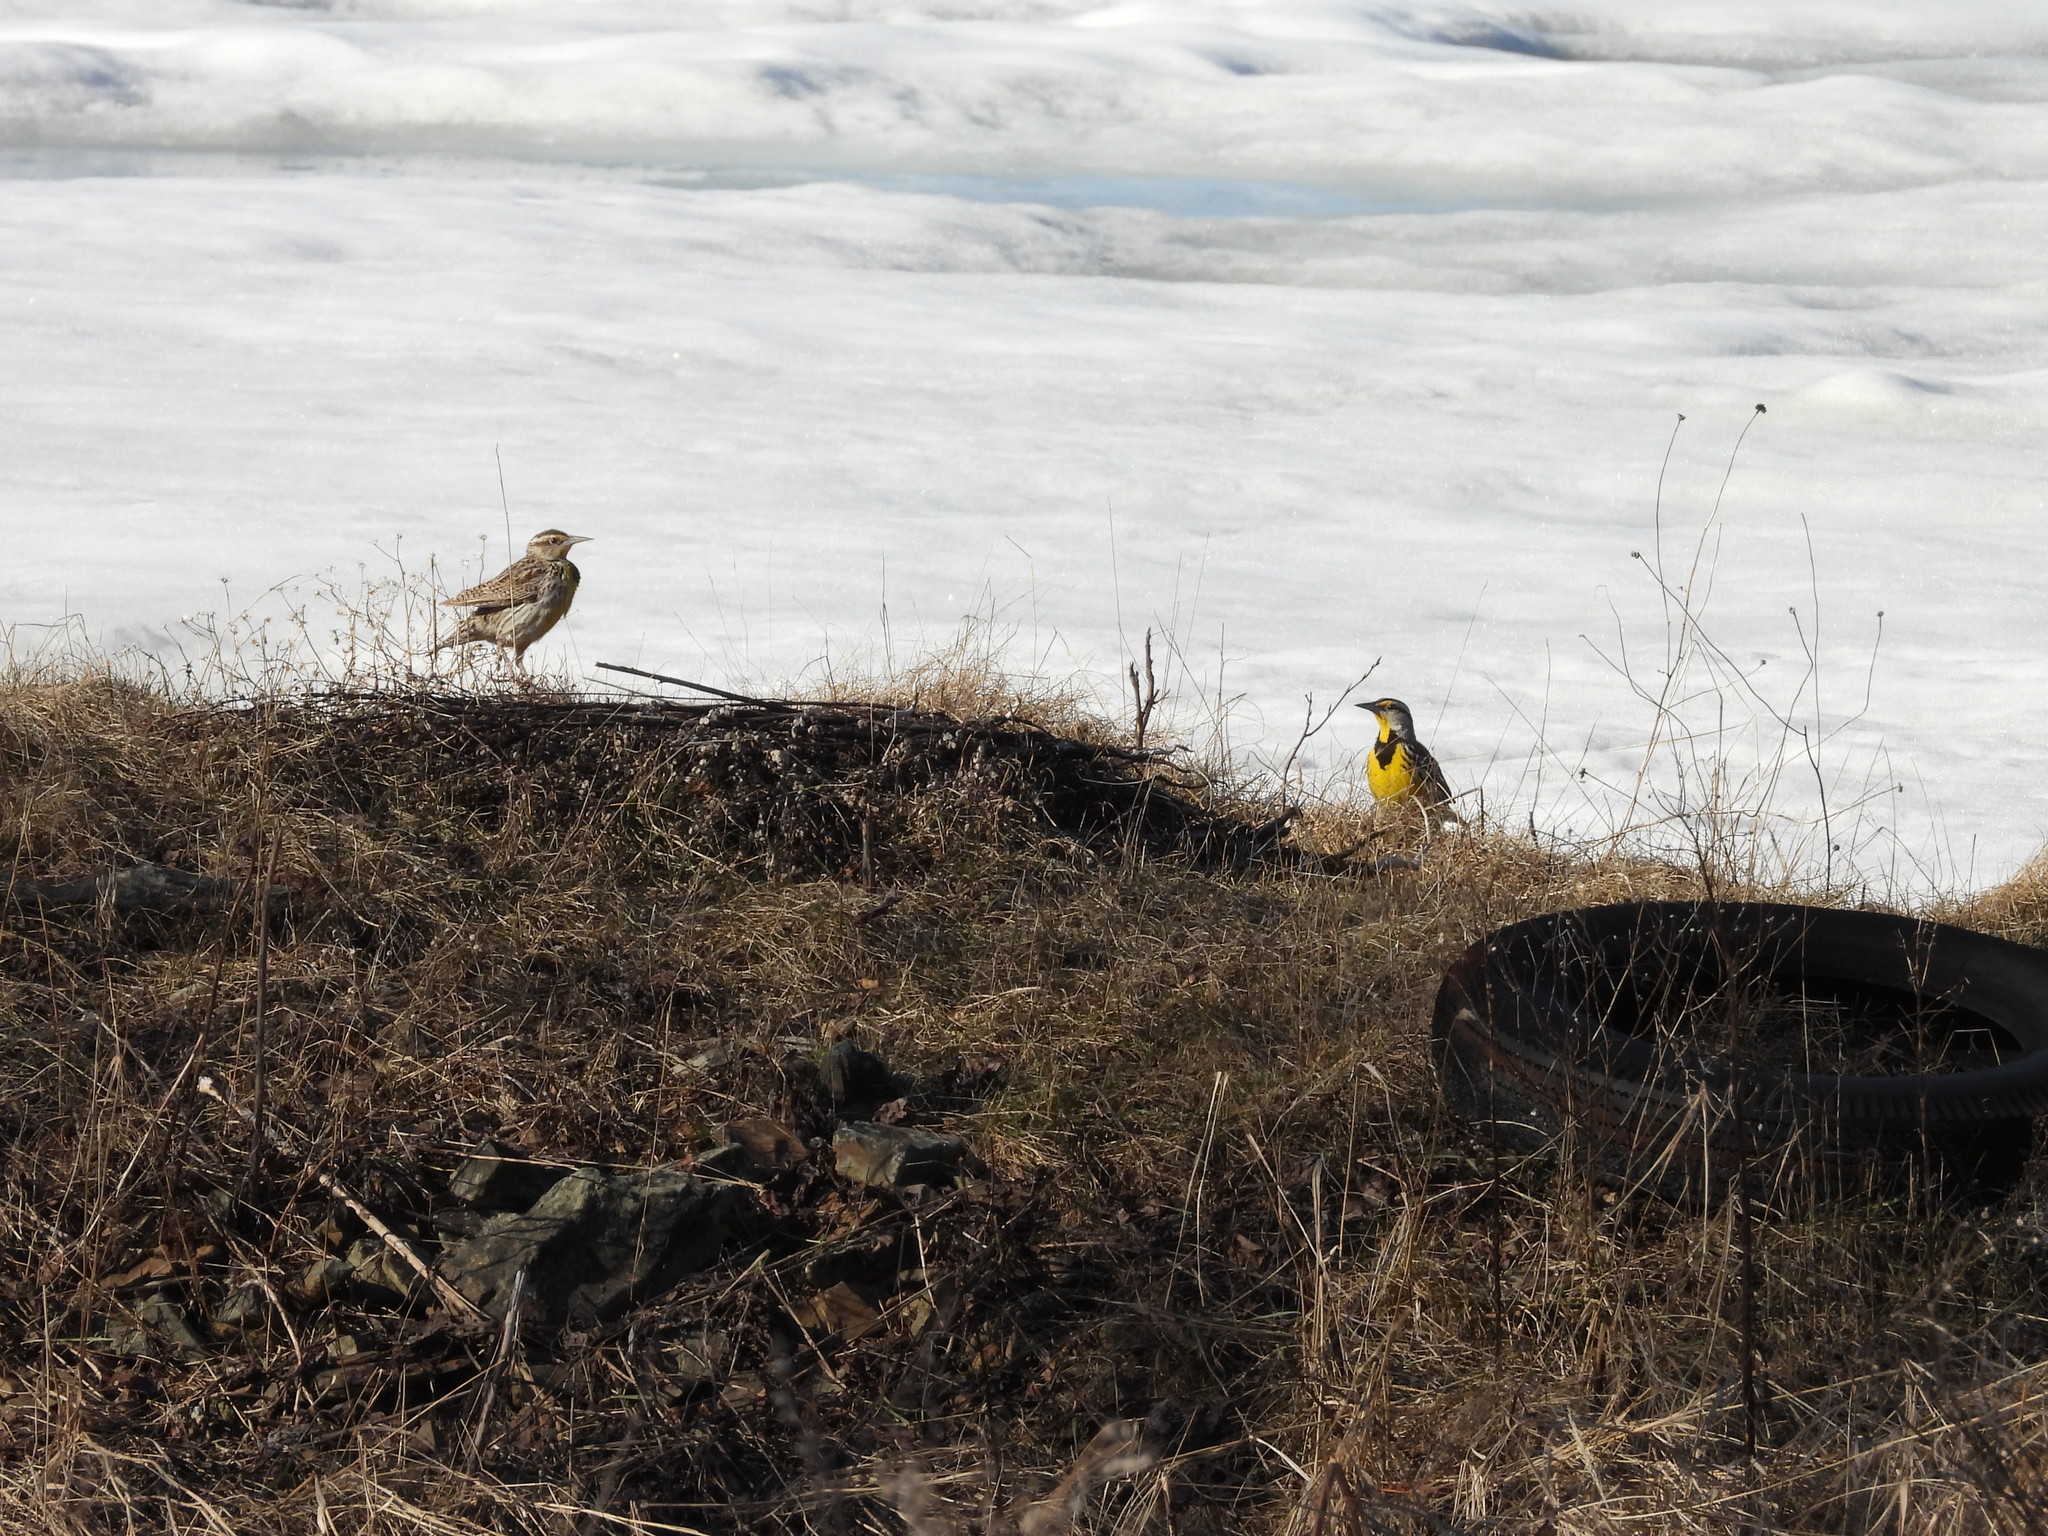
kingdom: Animalia
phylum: Chordata
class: Aves
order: Passeriformes
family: Icteridae
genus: Sturnella
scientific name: Sturnella neglecta
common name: Western meadowlark
